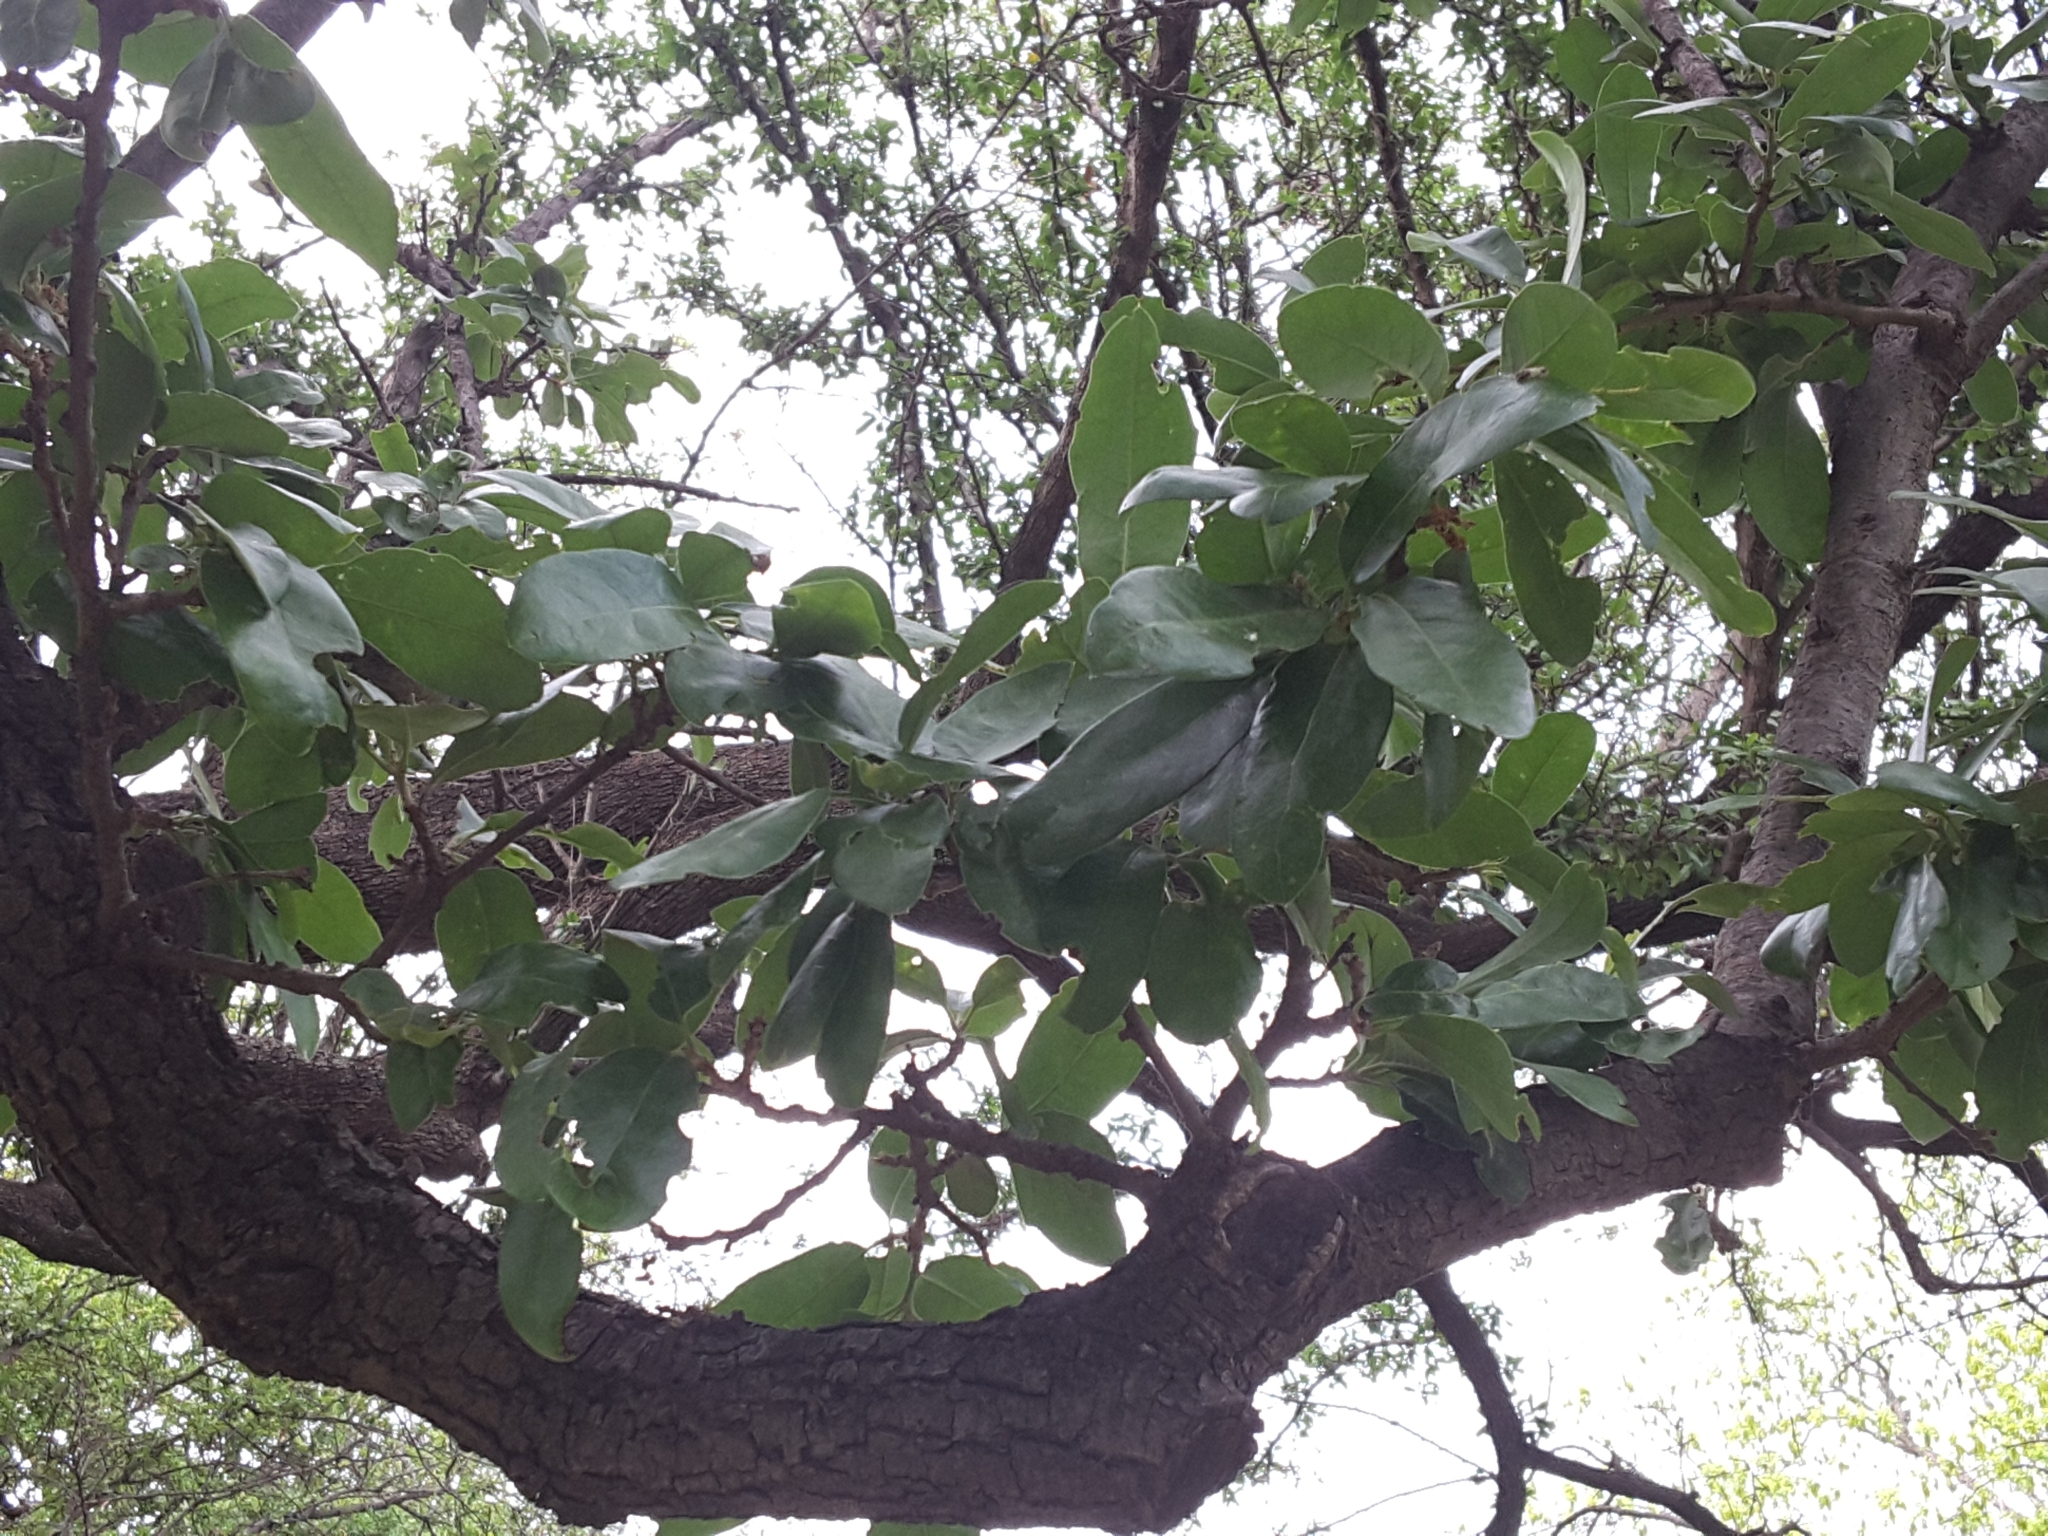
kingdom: Plantae
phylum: Tracheophyta
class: Magnoliopsida
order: Fagales
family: Fagaceae
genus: Quercus
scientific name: Quercus fusiformis
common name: Texas live oak
